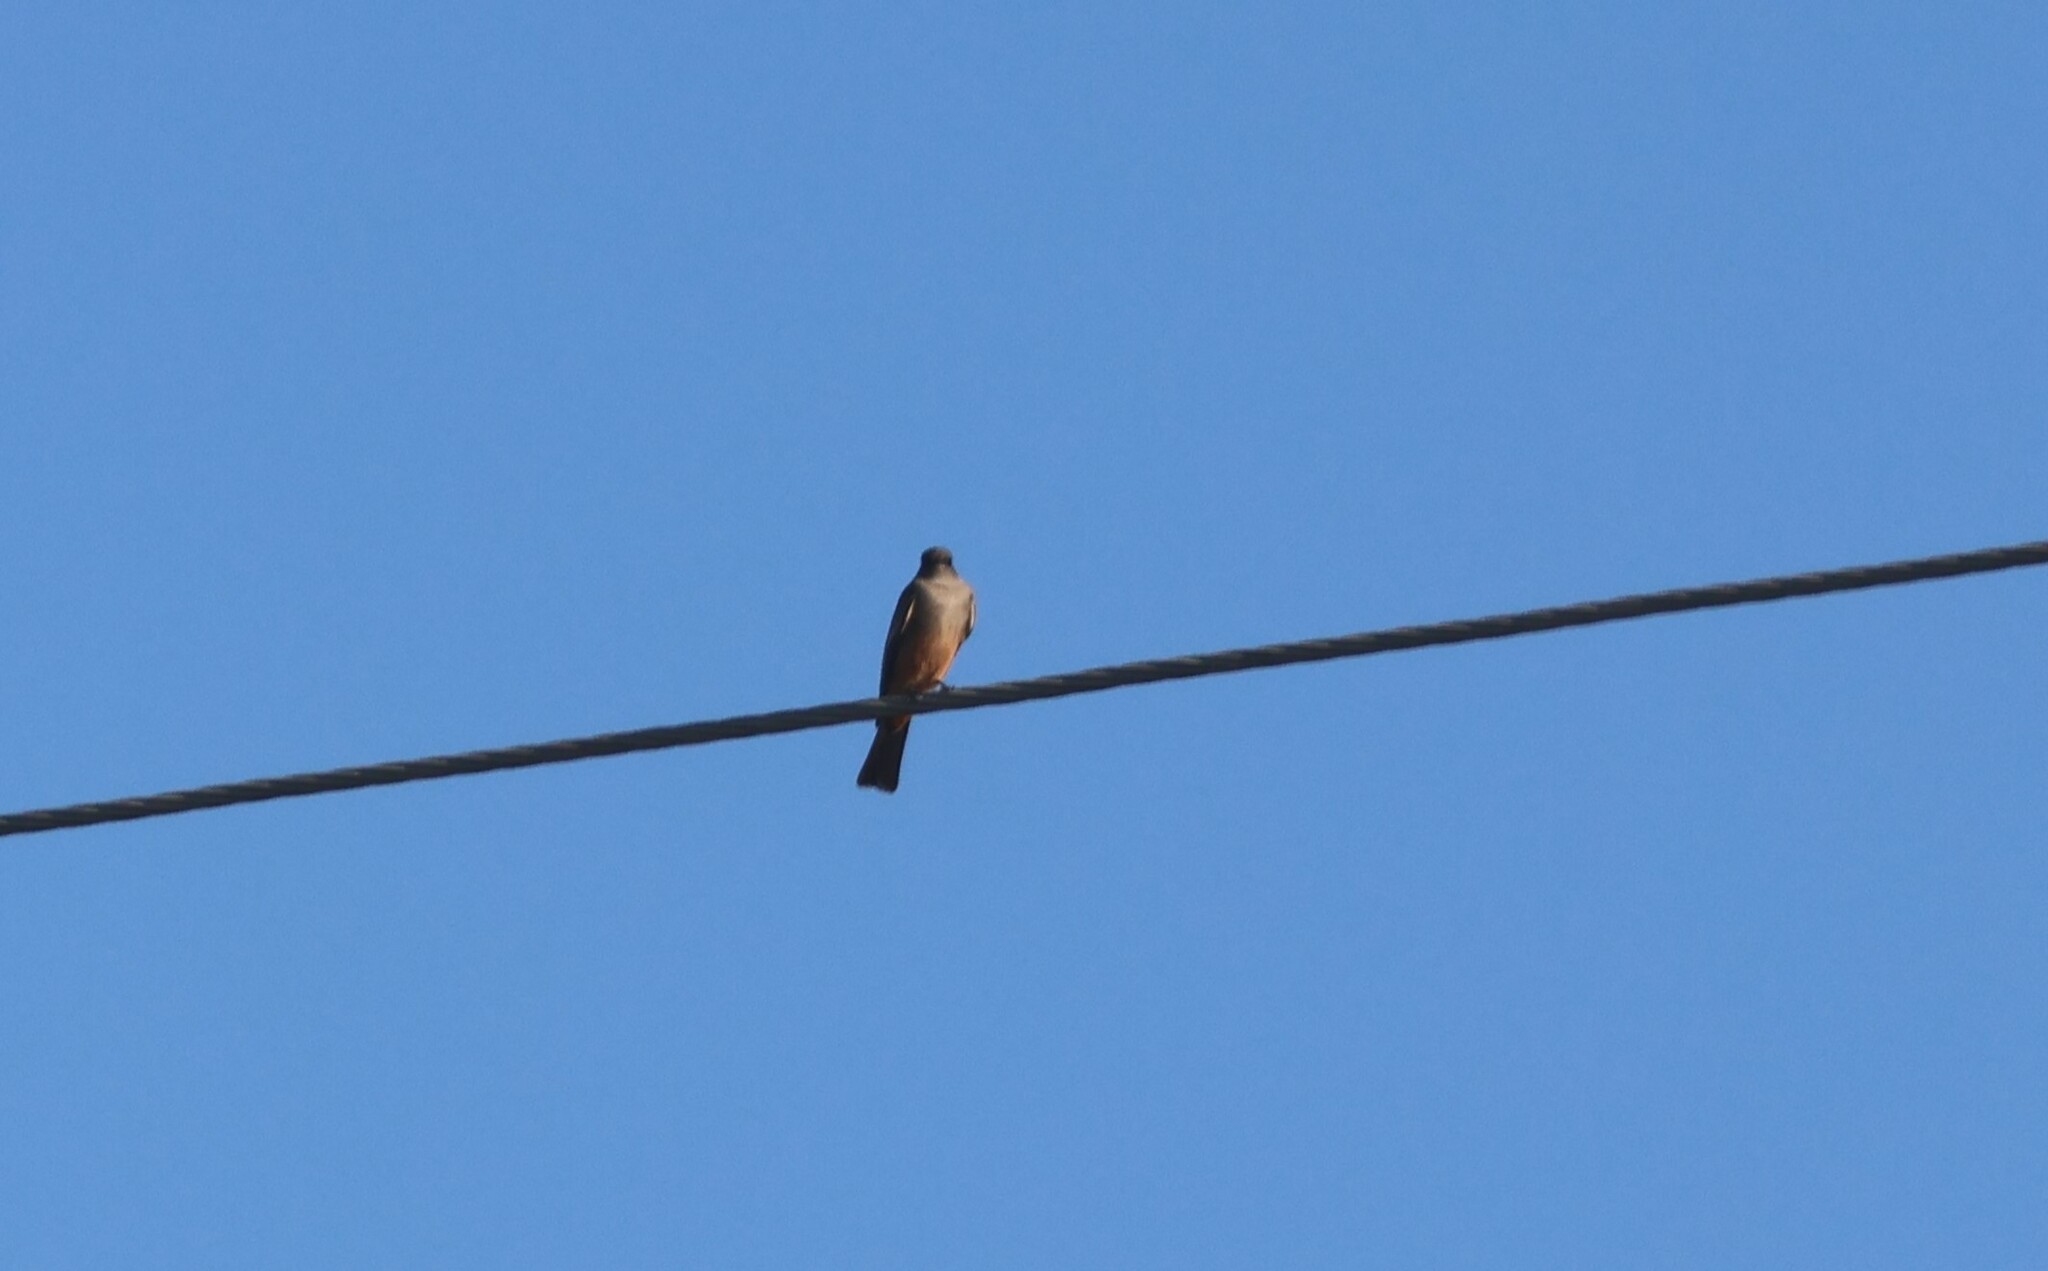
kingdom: Animalia
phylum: Chordata
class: Aves
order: Passeriformes
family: Tyrannidae
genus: Sayornis
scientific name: Sayornis saya
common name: Say's phoebe
